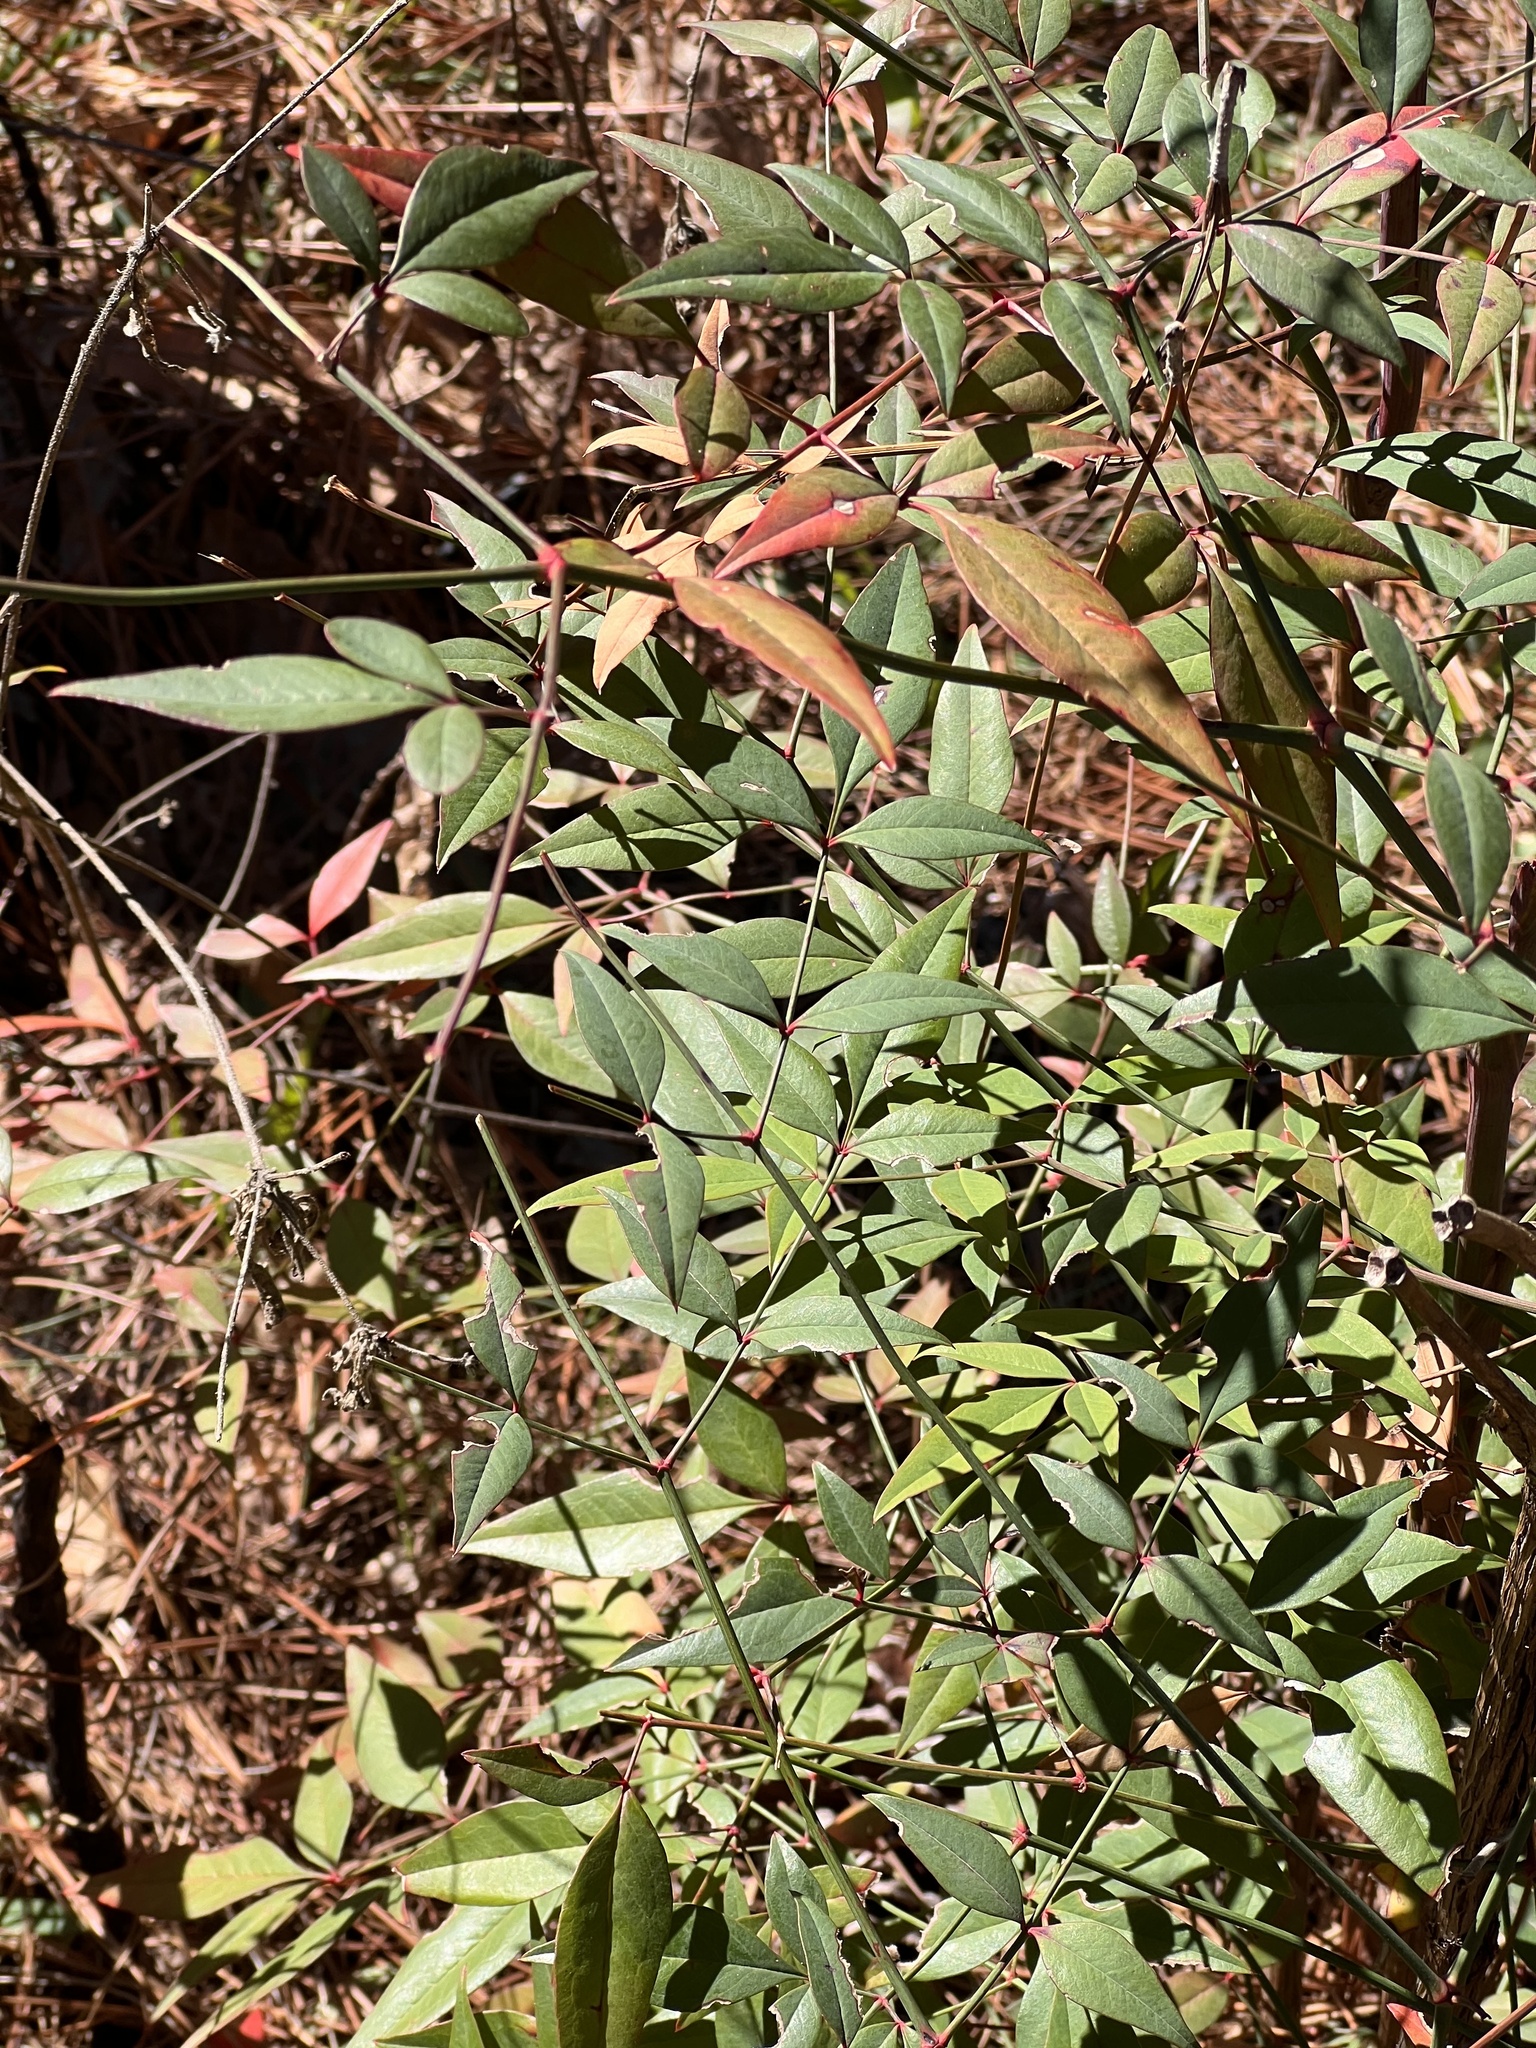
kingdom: Plantae
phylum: Tracheophyta
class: Magnoliopsida
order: Ranunculales
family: Berberidaceae
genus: Nandina
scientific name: Nandina domestica
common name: Sacred bamboo
